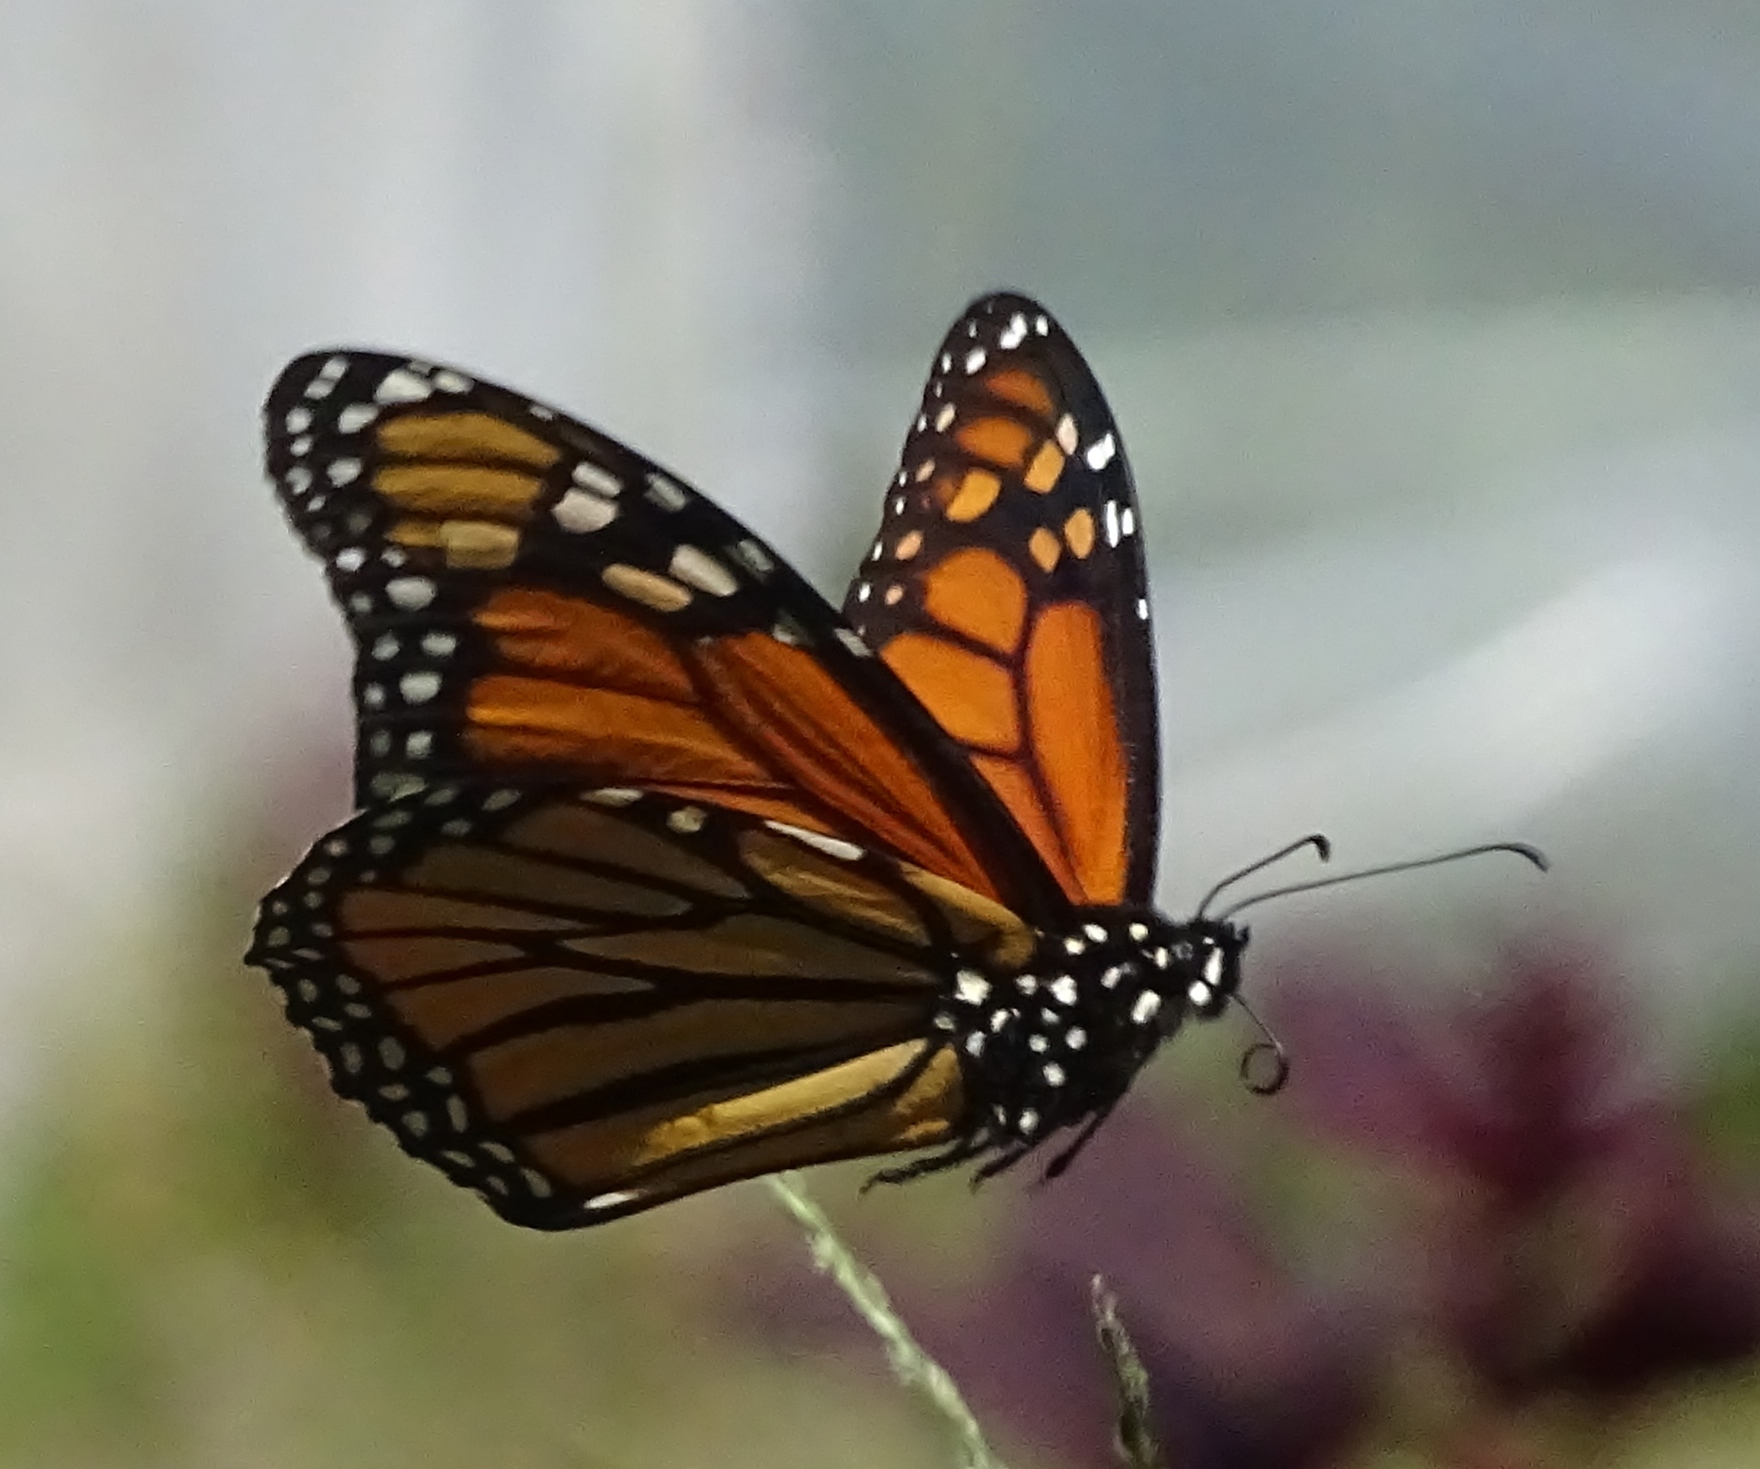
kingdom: Animalia
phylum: Arthropoda
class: Insecta
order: Lepidoptera
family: Nymphalidae
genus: Danaus
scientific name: Danaus plexippus
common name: Monarch
